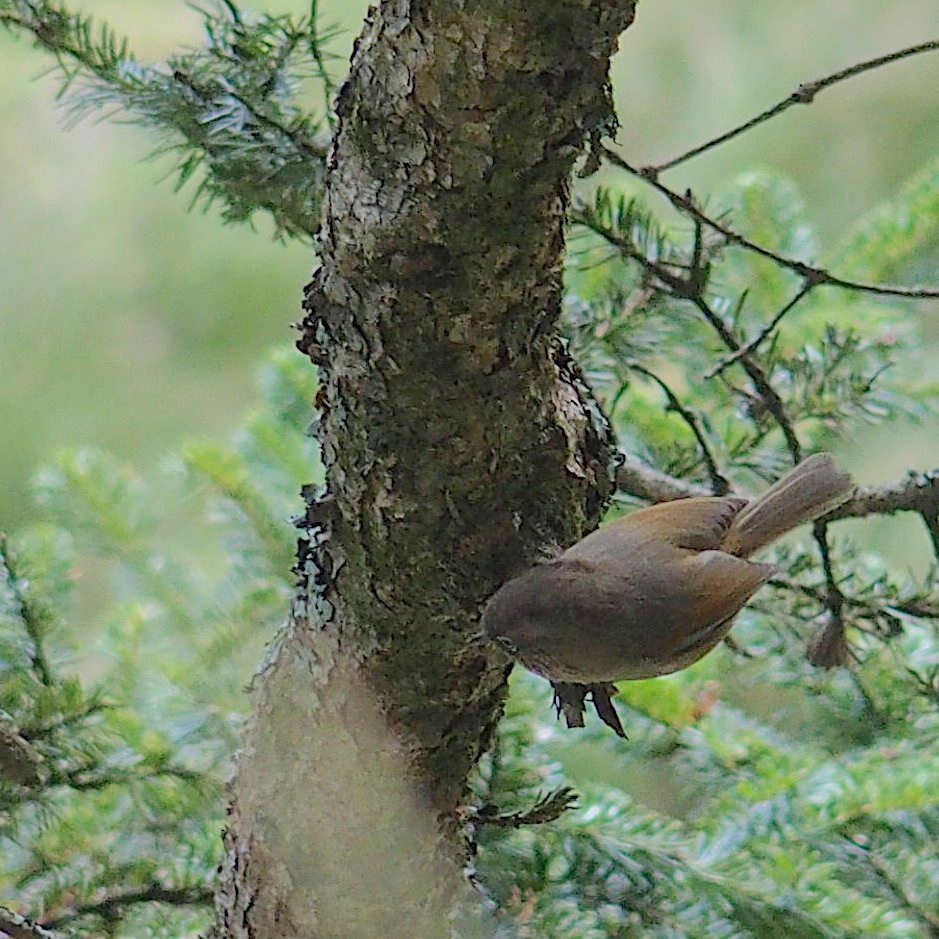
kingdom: Animalia
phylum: Chordata
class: Aves
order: Passeriformes
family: Sylviidae
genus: Fulvetta
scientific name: Fulvetta formosana
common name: Taiwan fulvetta
